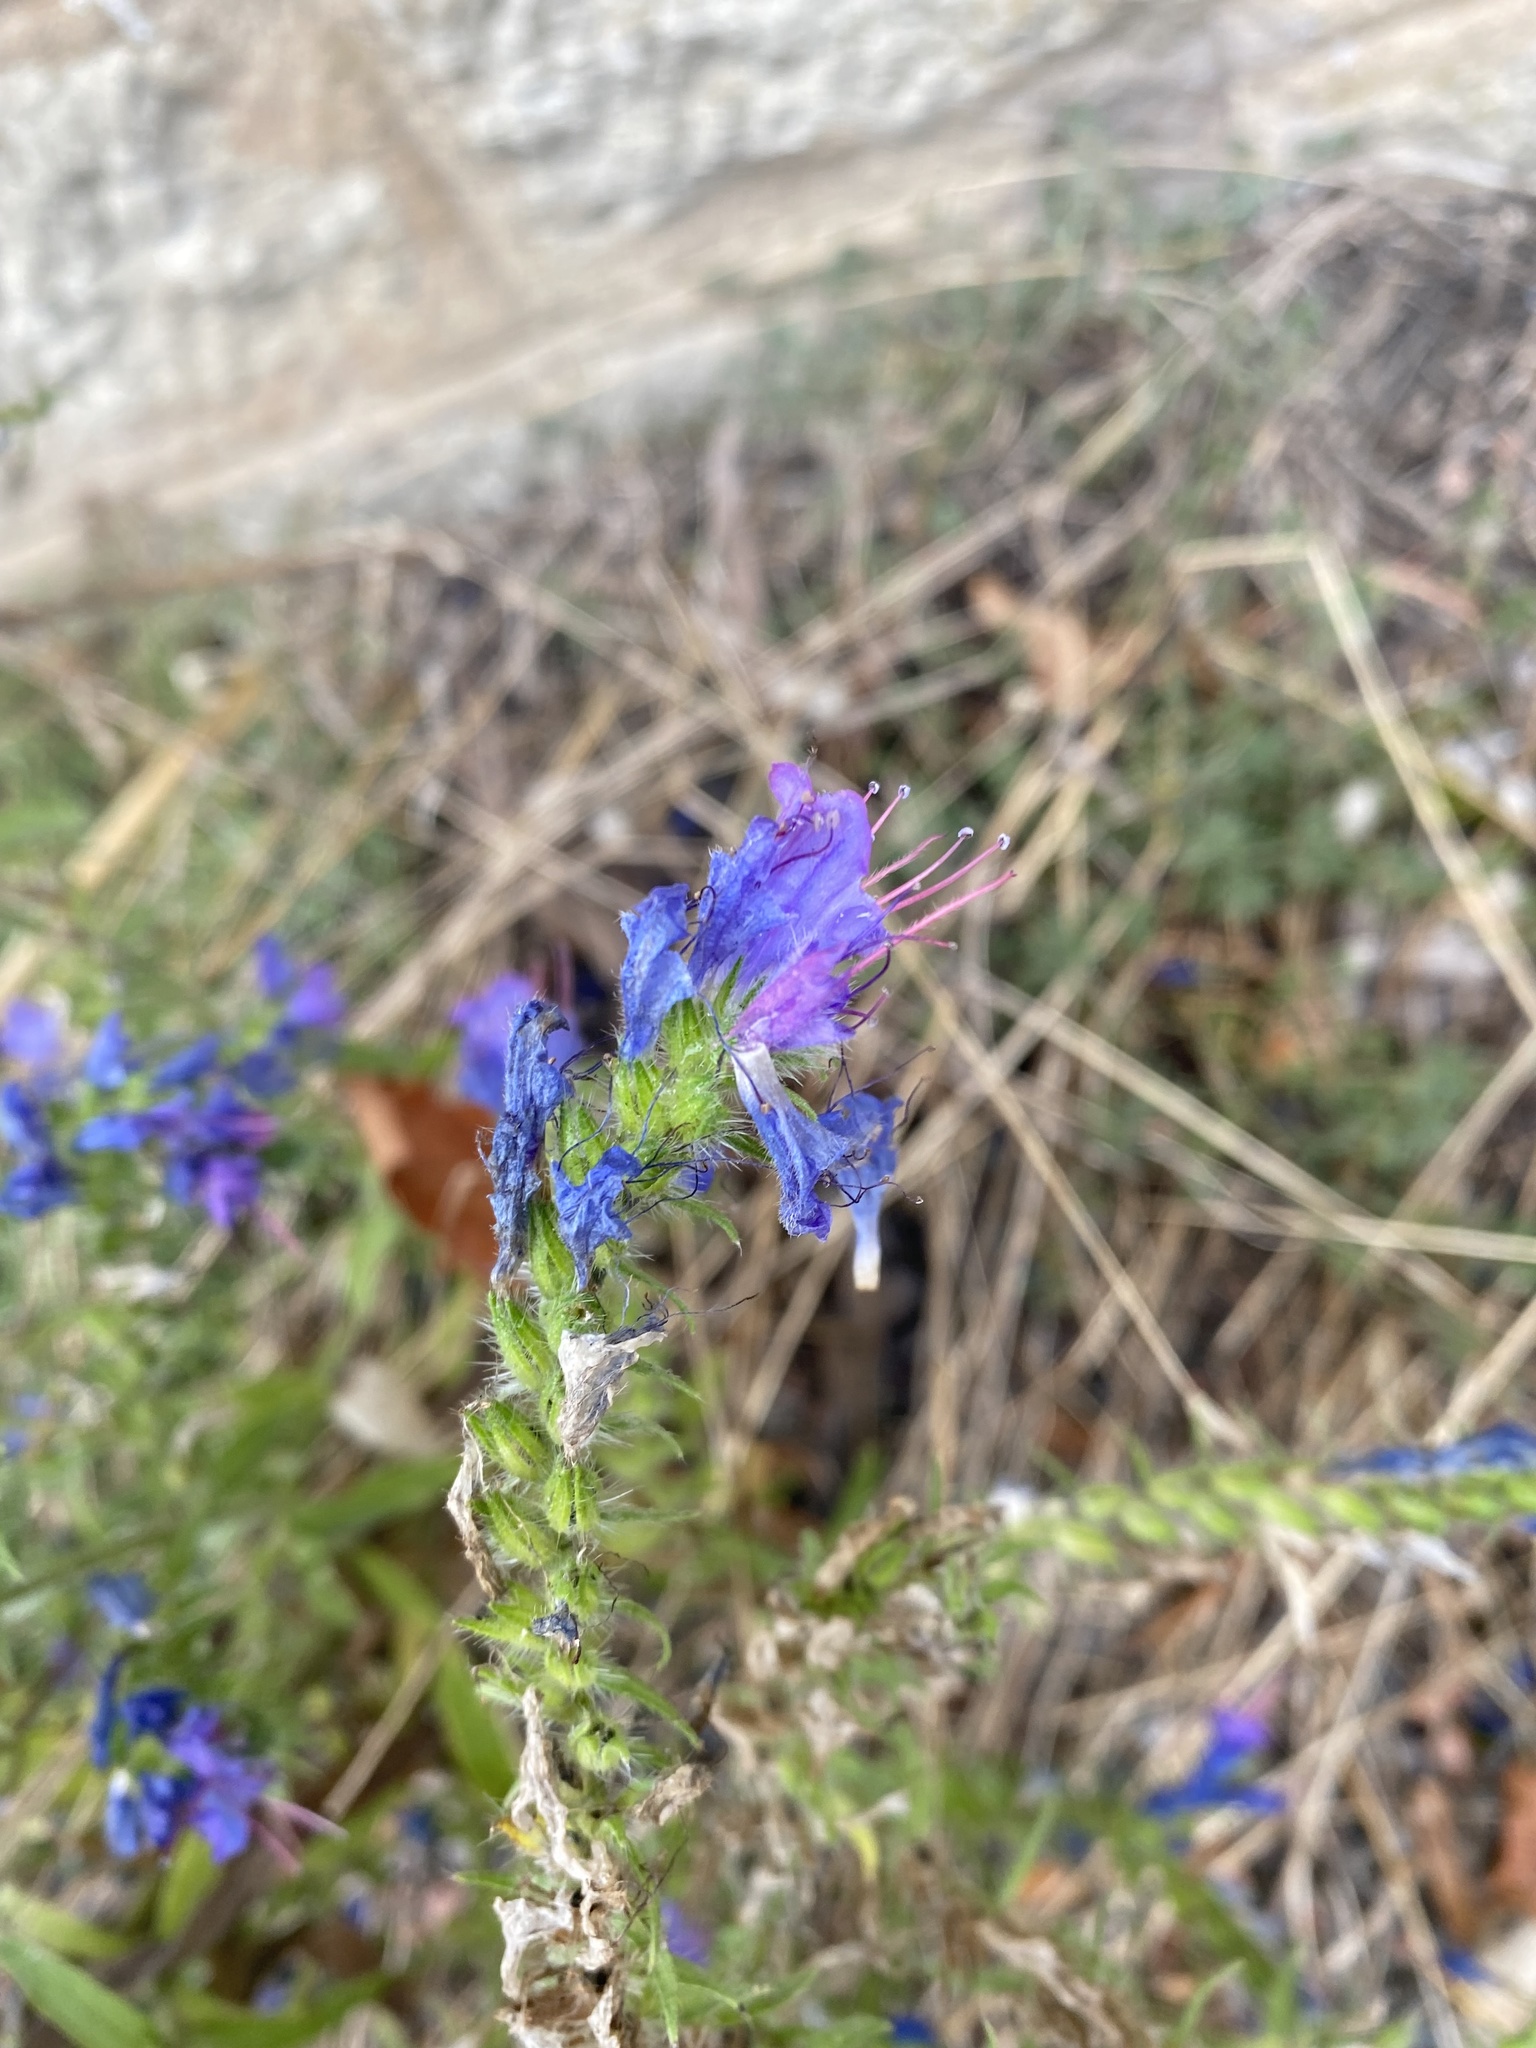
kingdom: Plantae
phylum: Tracheophyta
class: Magnoliopsida
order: Boraginales
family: Boraginaceae
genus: Echium
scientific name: Echium vulgare
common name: Common viper's bugloss
